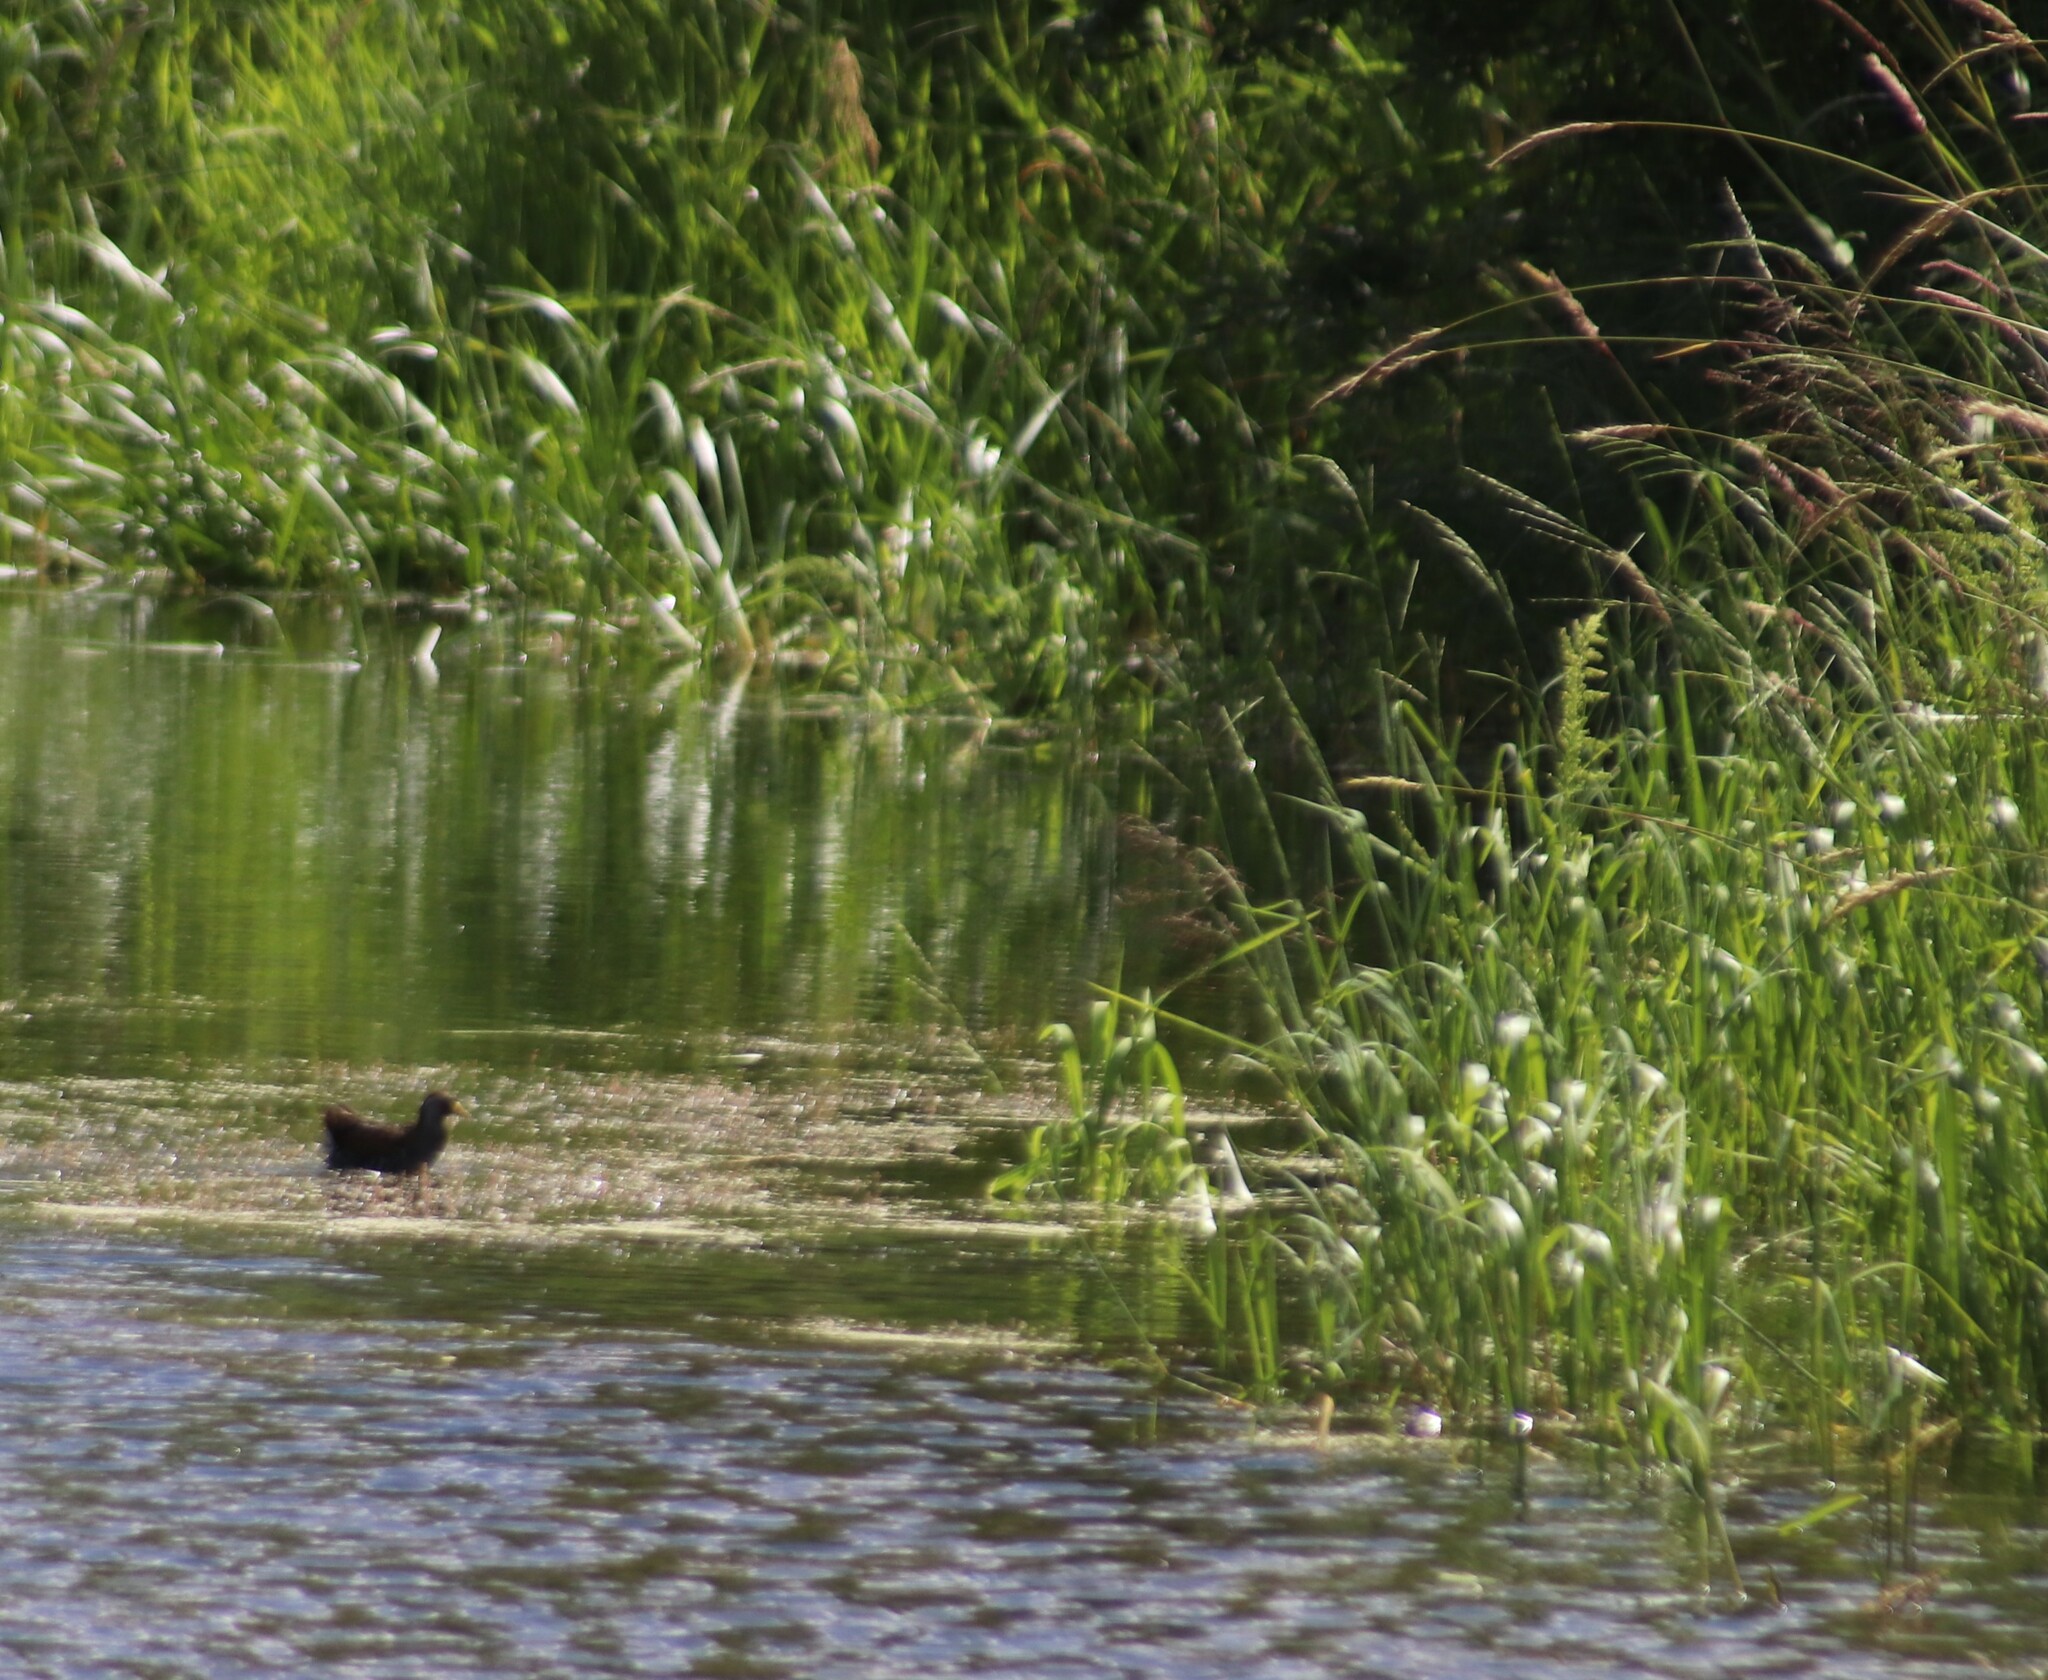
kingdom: Animalia
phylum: Chordata
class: Aves
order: Gruiformes
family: Rallidae
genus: Porzana
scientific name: Porzana carolina
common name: Sora
